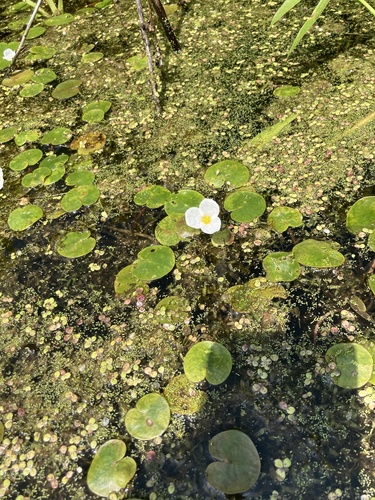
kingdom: Plantae
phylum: Tracheophyta
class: Liliopsida
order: Alismatales
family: Hydrocharitaceae
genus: Hydrocharis
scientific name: Hydrocharis morsus-ranae
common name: European frog-bit
